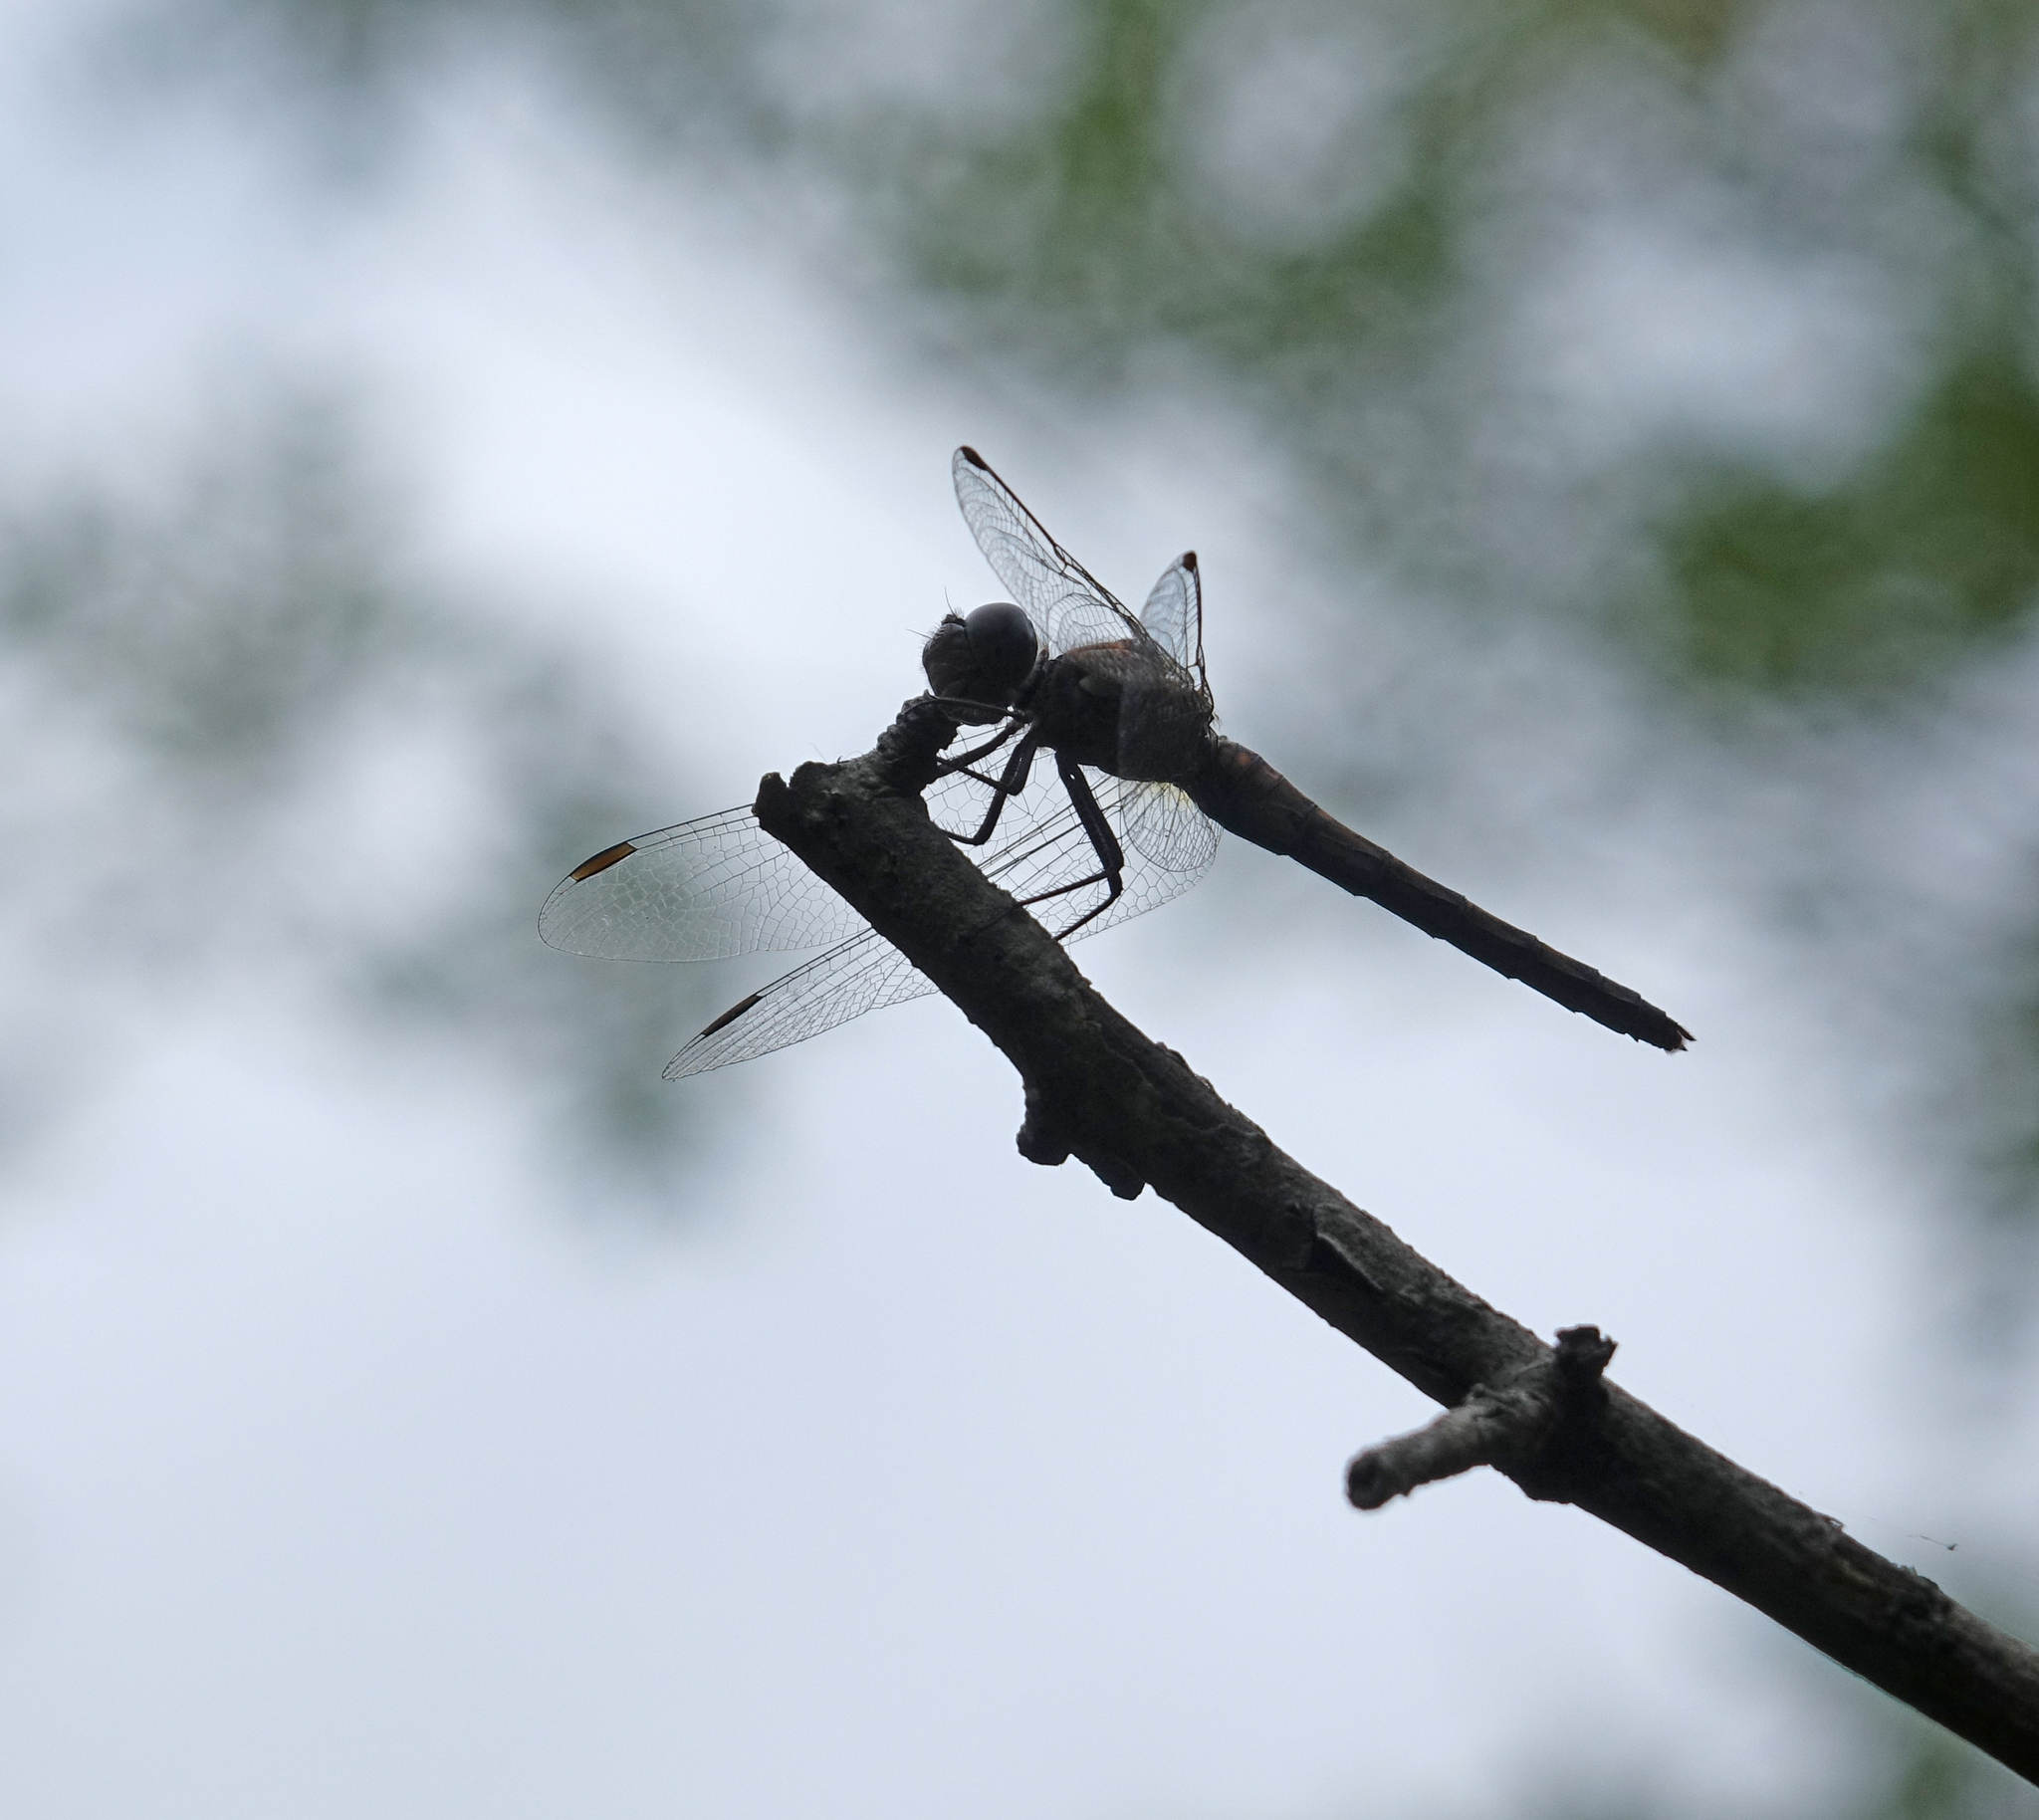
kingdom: Animalia
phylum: Arthropoda
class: Insecta
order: Odonata
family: Libellulidae
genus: Sympetrum
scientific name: Sympetrum striolatum
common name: Common darter
